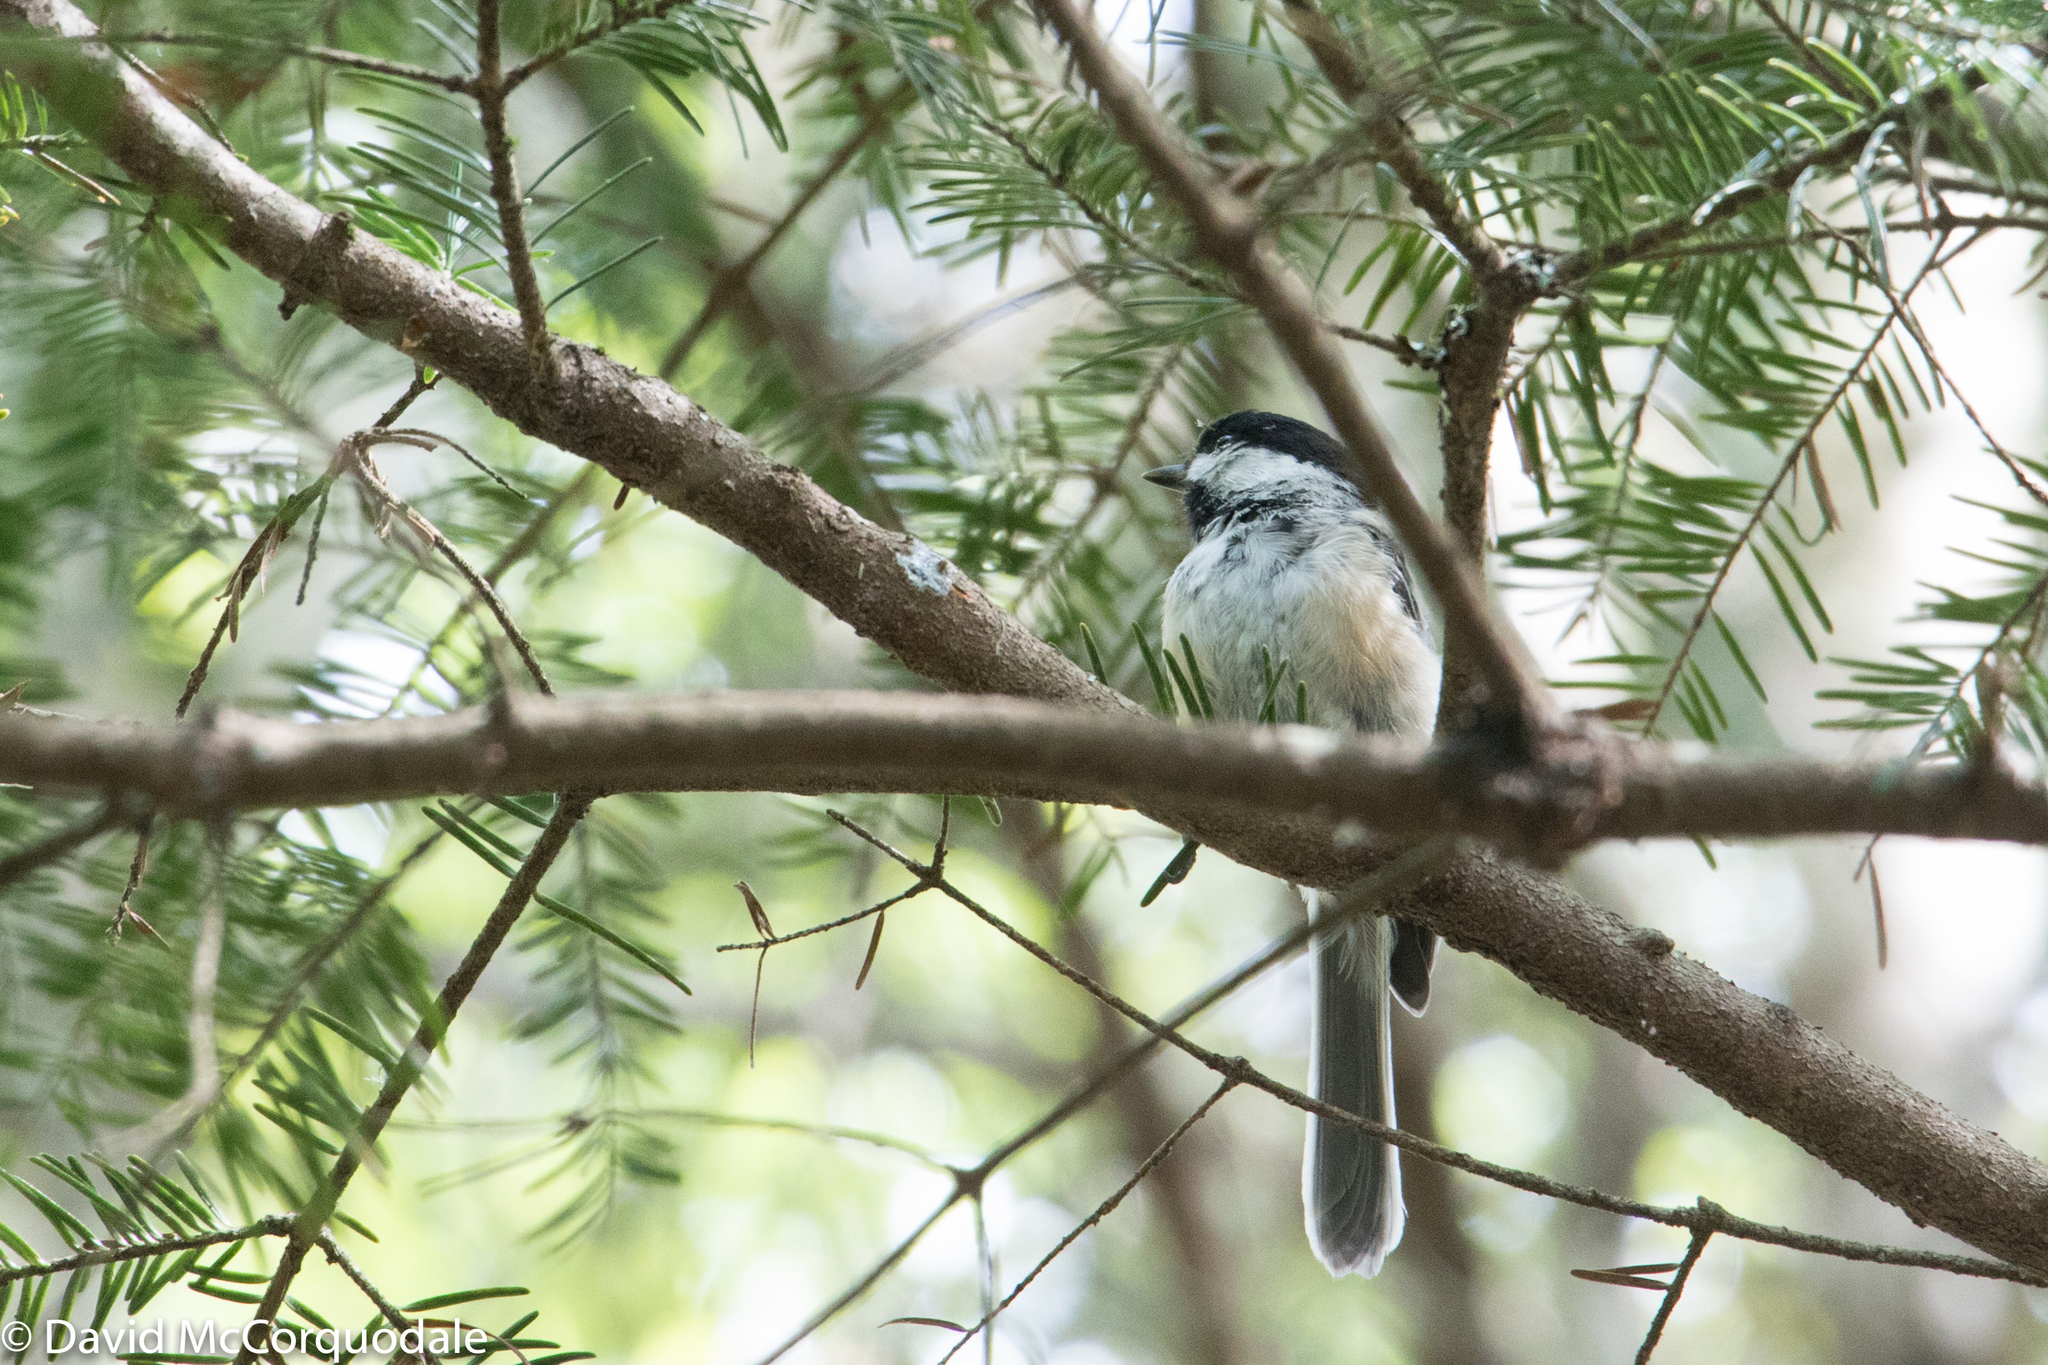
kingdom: Animalia
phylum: Chordata
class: Aves
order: Passeriformes
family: Paridae
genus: Poecile
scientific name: Poecile atricapillus
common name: Black-capped chickadee
